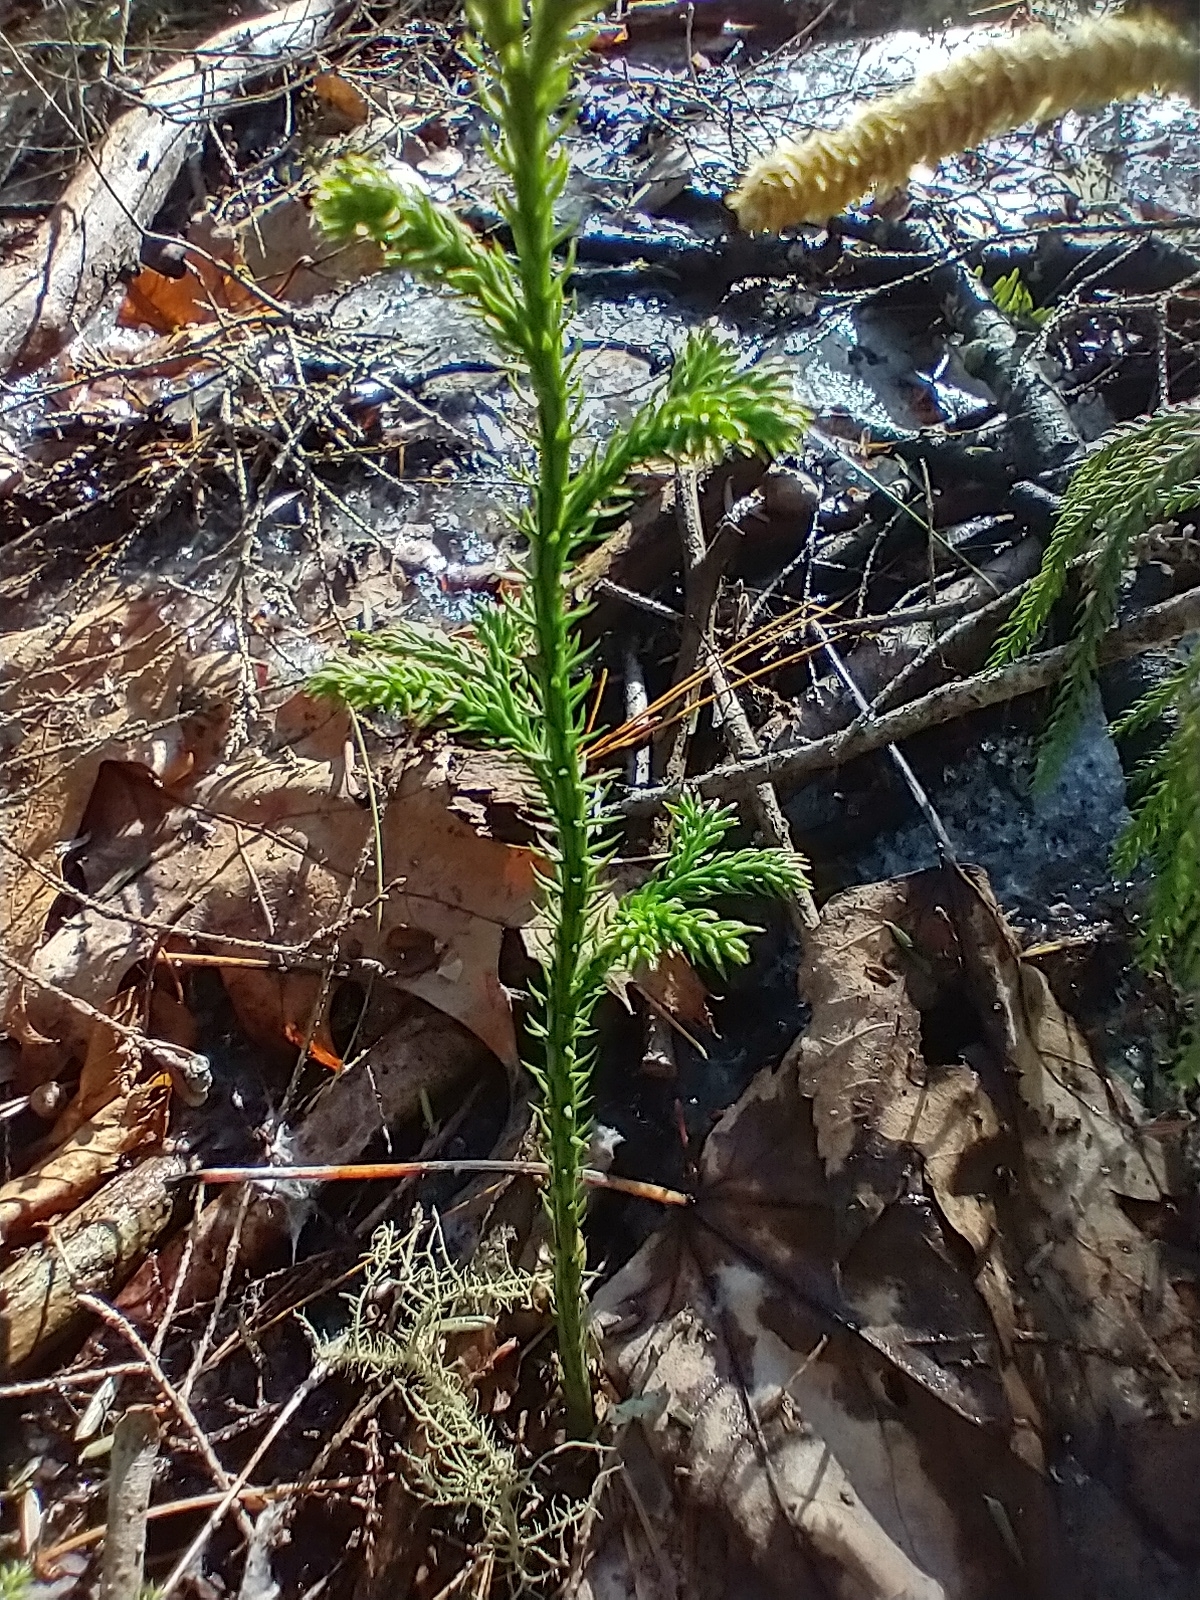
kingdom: Plantae
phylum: Tracheophyta
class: Lycopodiopsida
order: Lycopodiales
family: Lycopodiaceae
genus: Dendrolycopodium
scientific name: Dendrolycopodium dendroideum
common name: Northern tree-clubmoss
